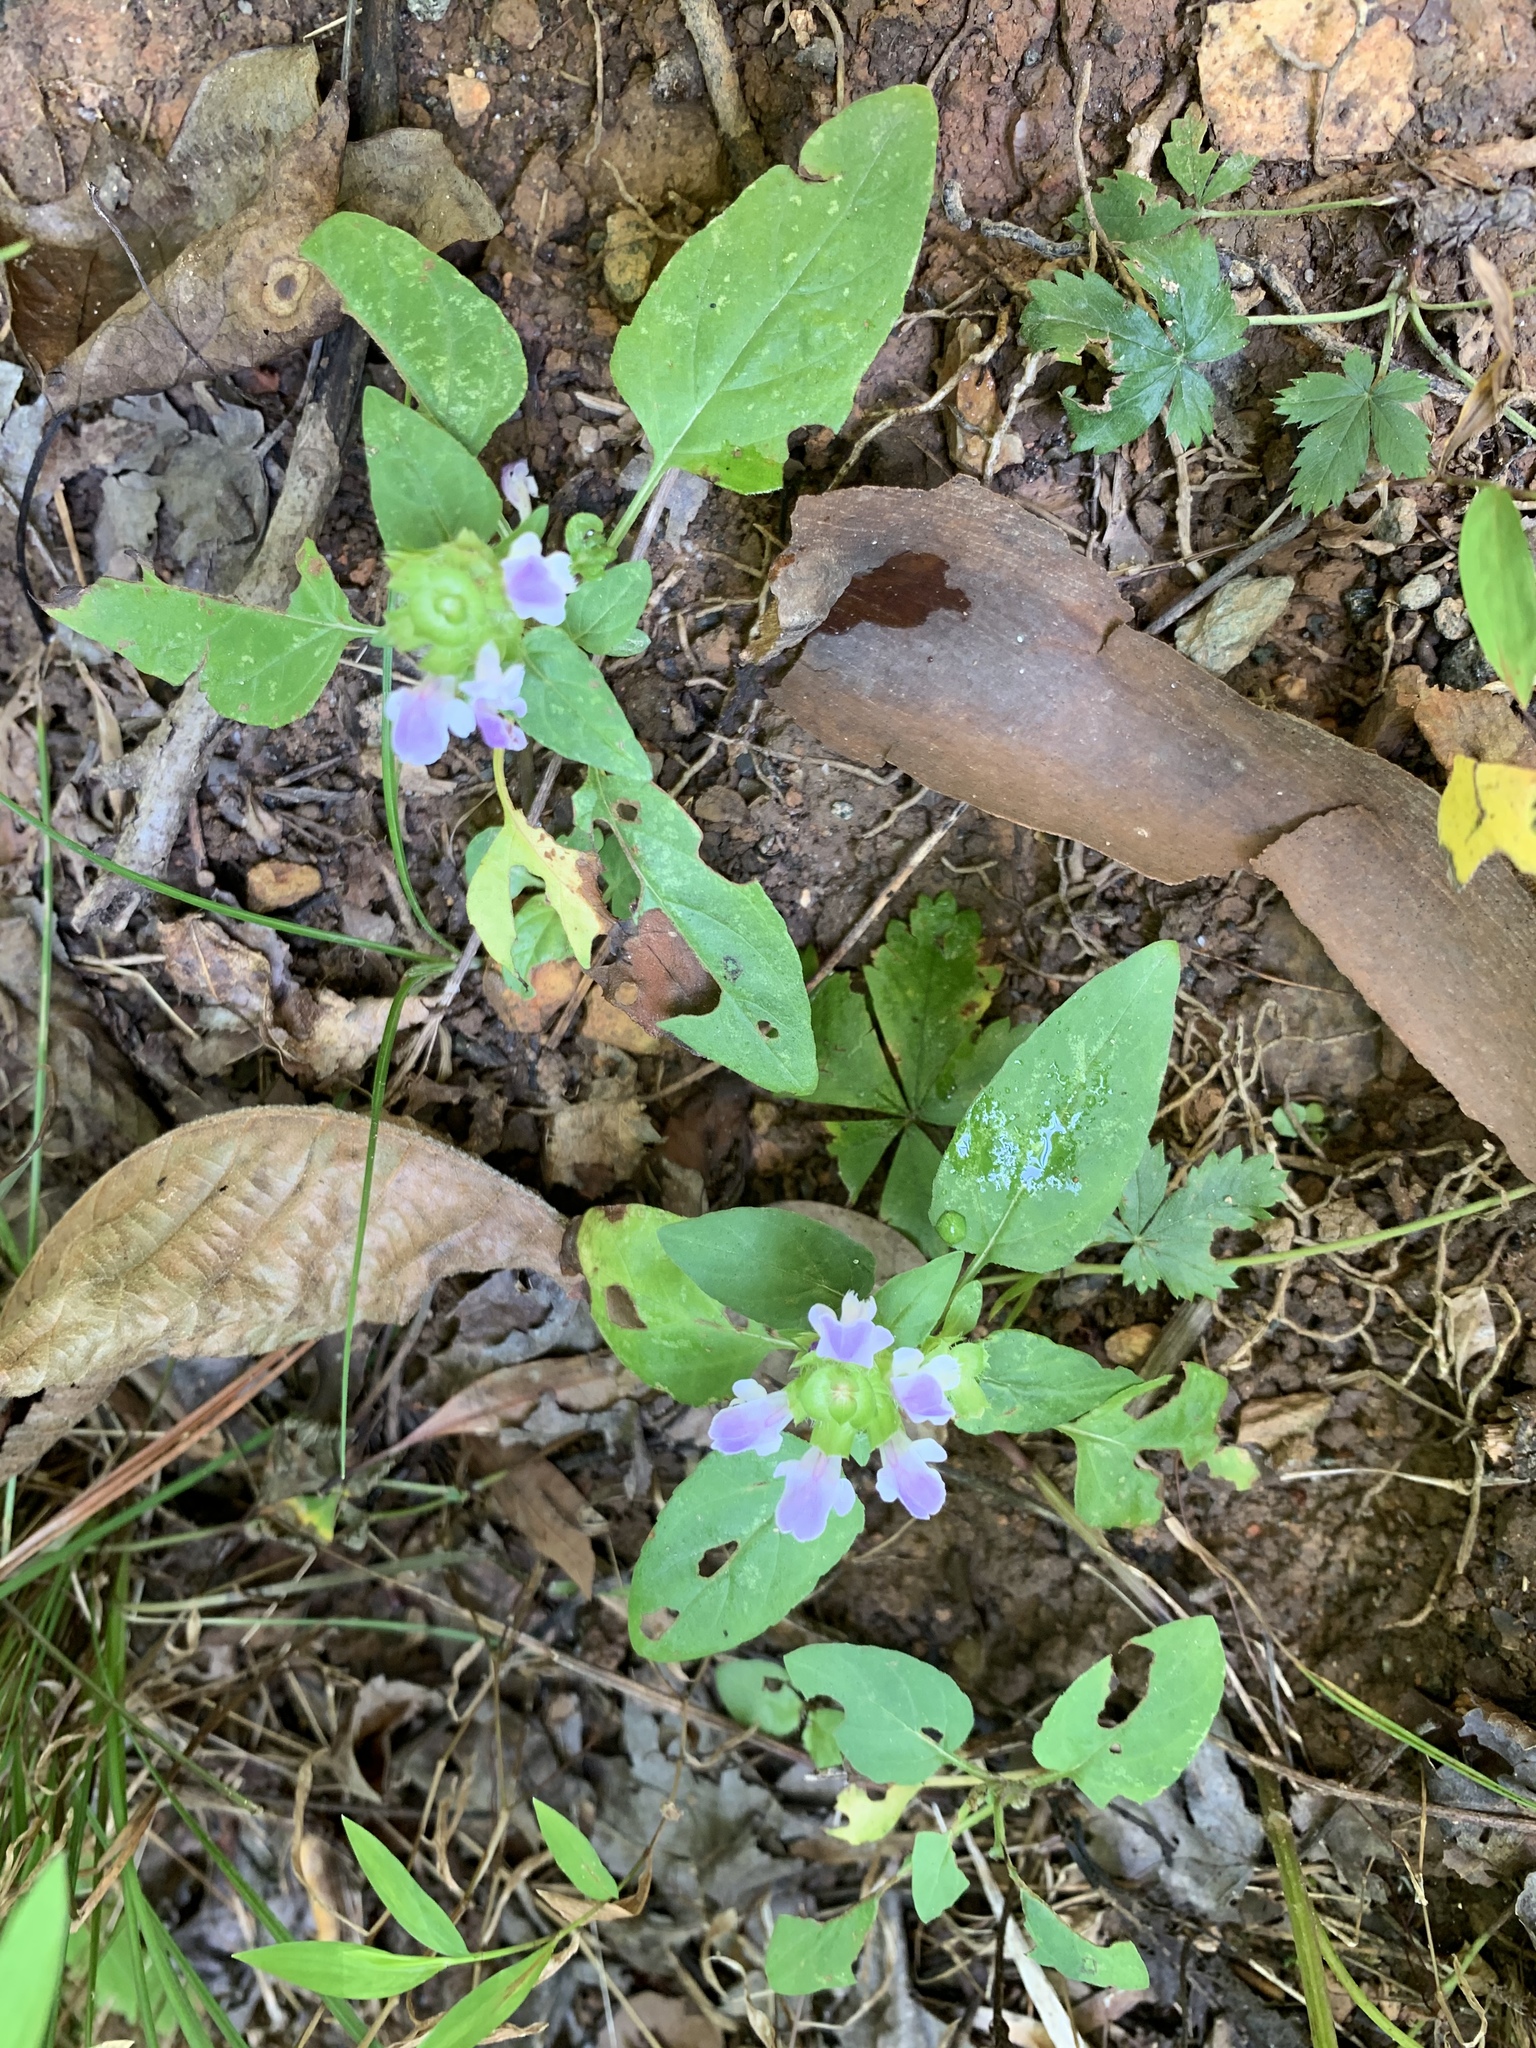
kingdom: Plantae
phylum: Tracheophyta
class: Magnoliopsida
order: Lamiales
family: Lamiaceae
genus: Prunella
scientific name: Prunella vulgaris
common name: Heal-all
